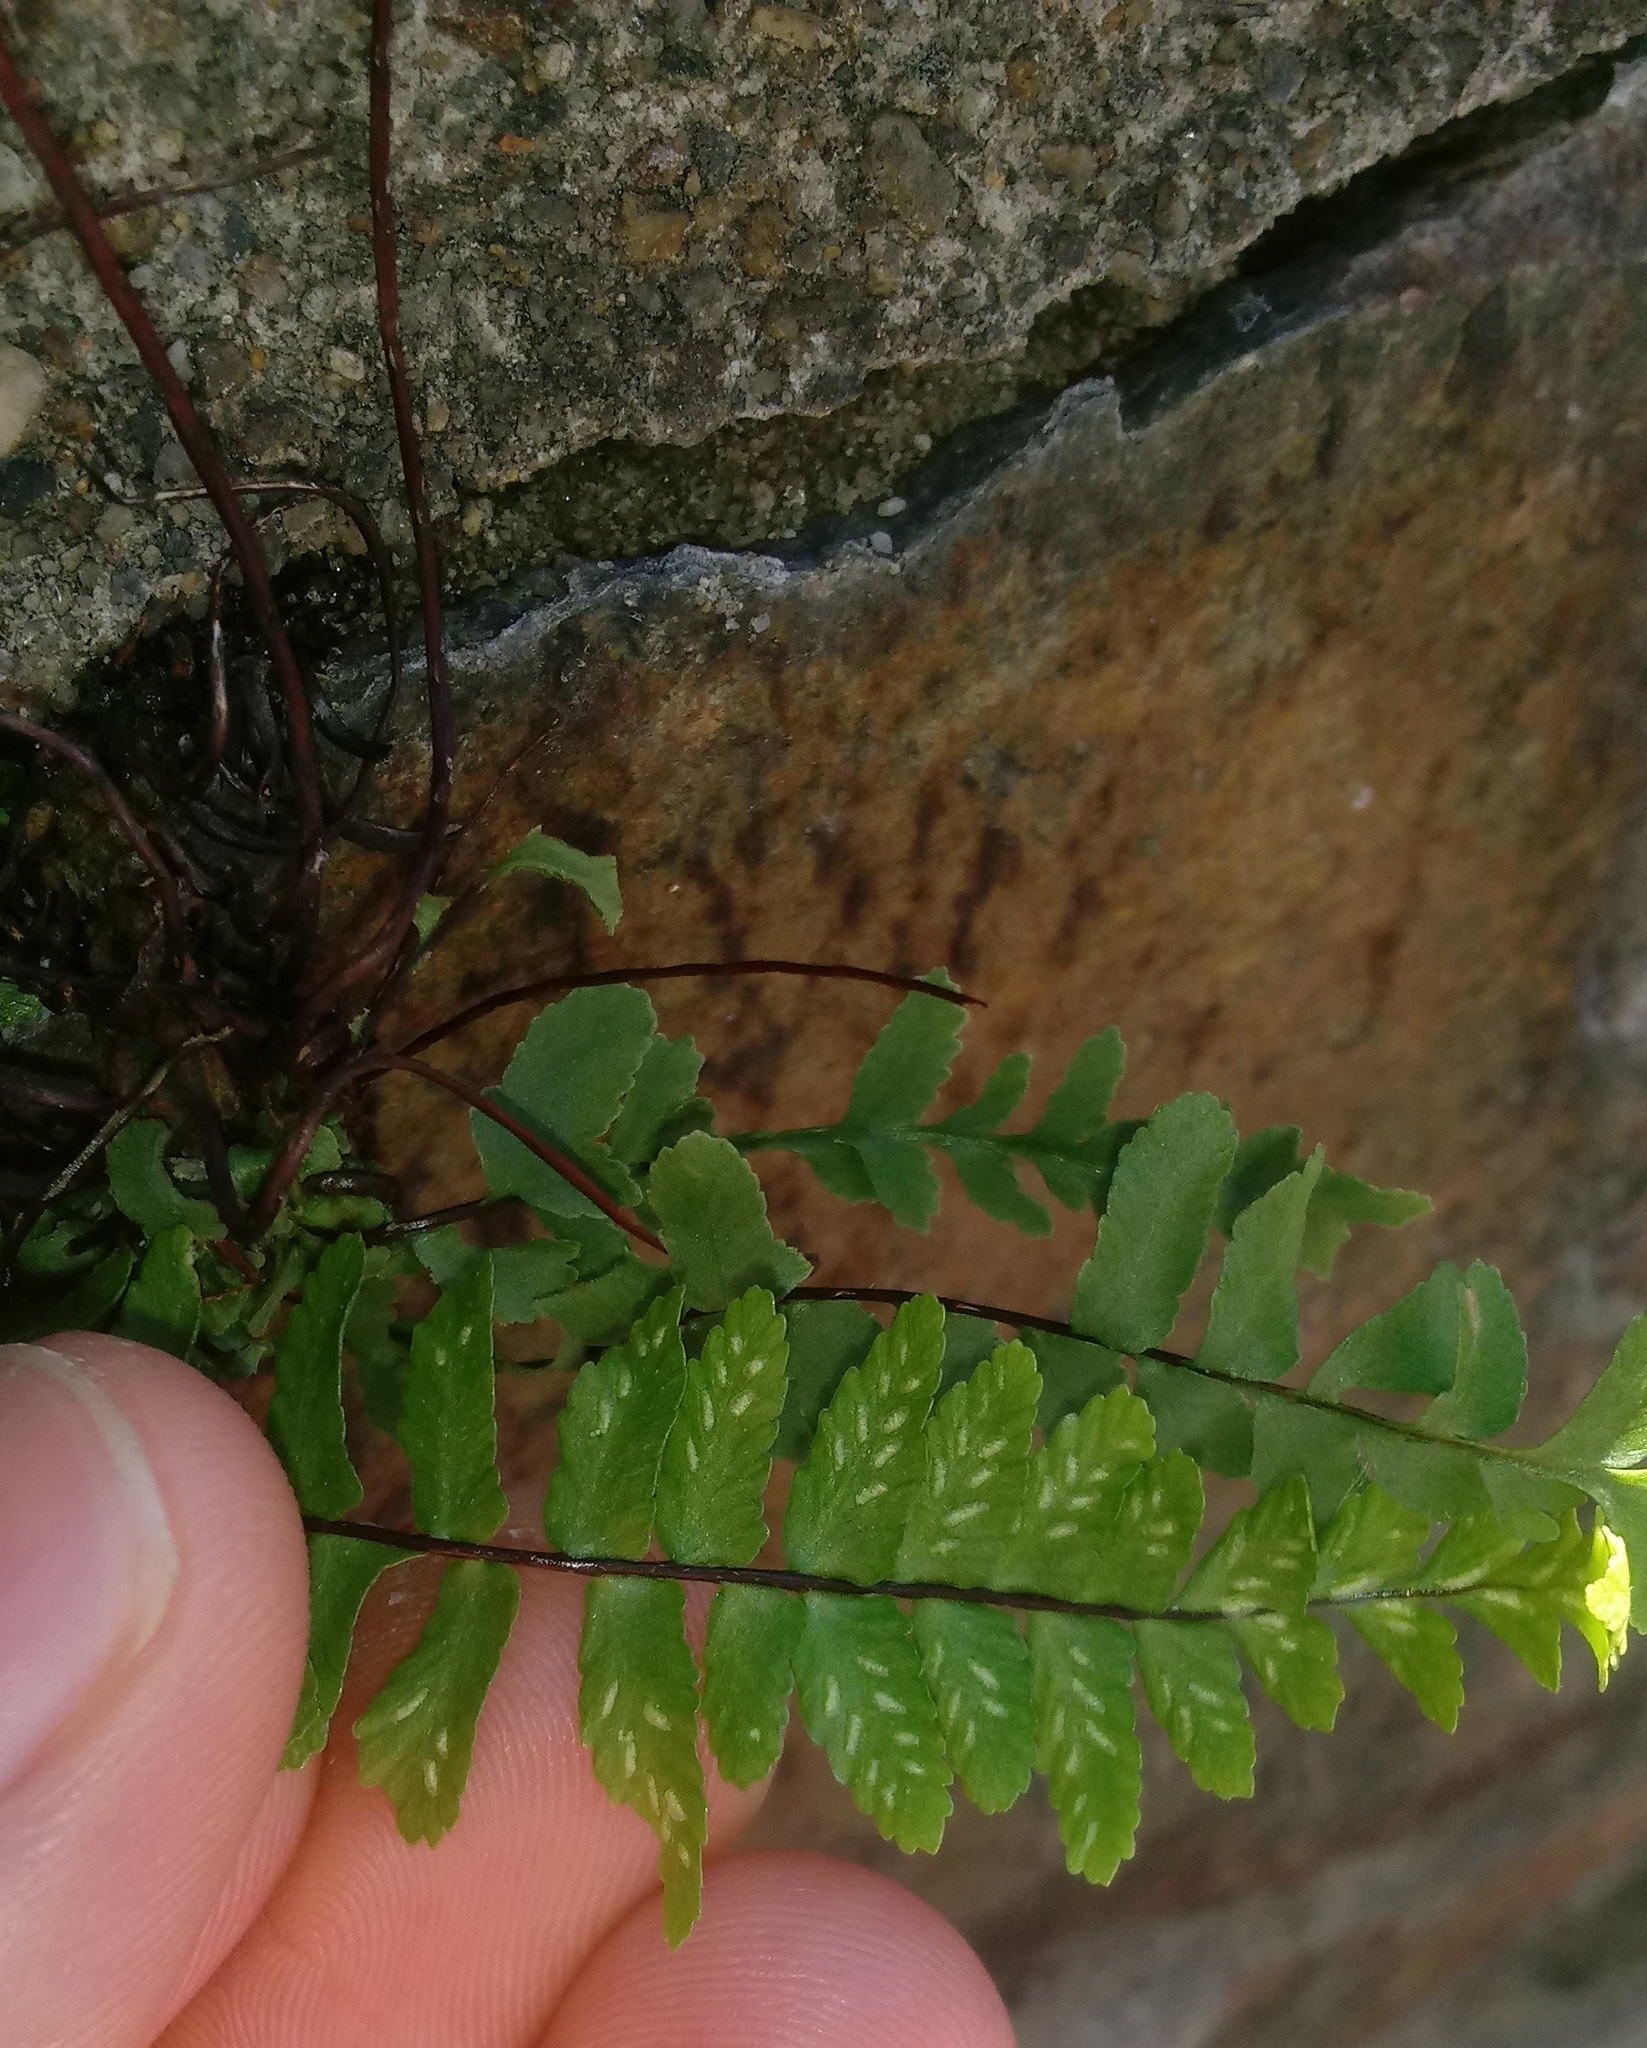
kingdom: Plantae
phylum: Tracheophyta
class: Polypodiopsida
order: Polypodiales
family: Aspleniaceae
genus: Asplenium
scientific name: Asplenium platyneuron
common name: Ebony spleenwort
